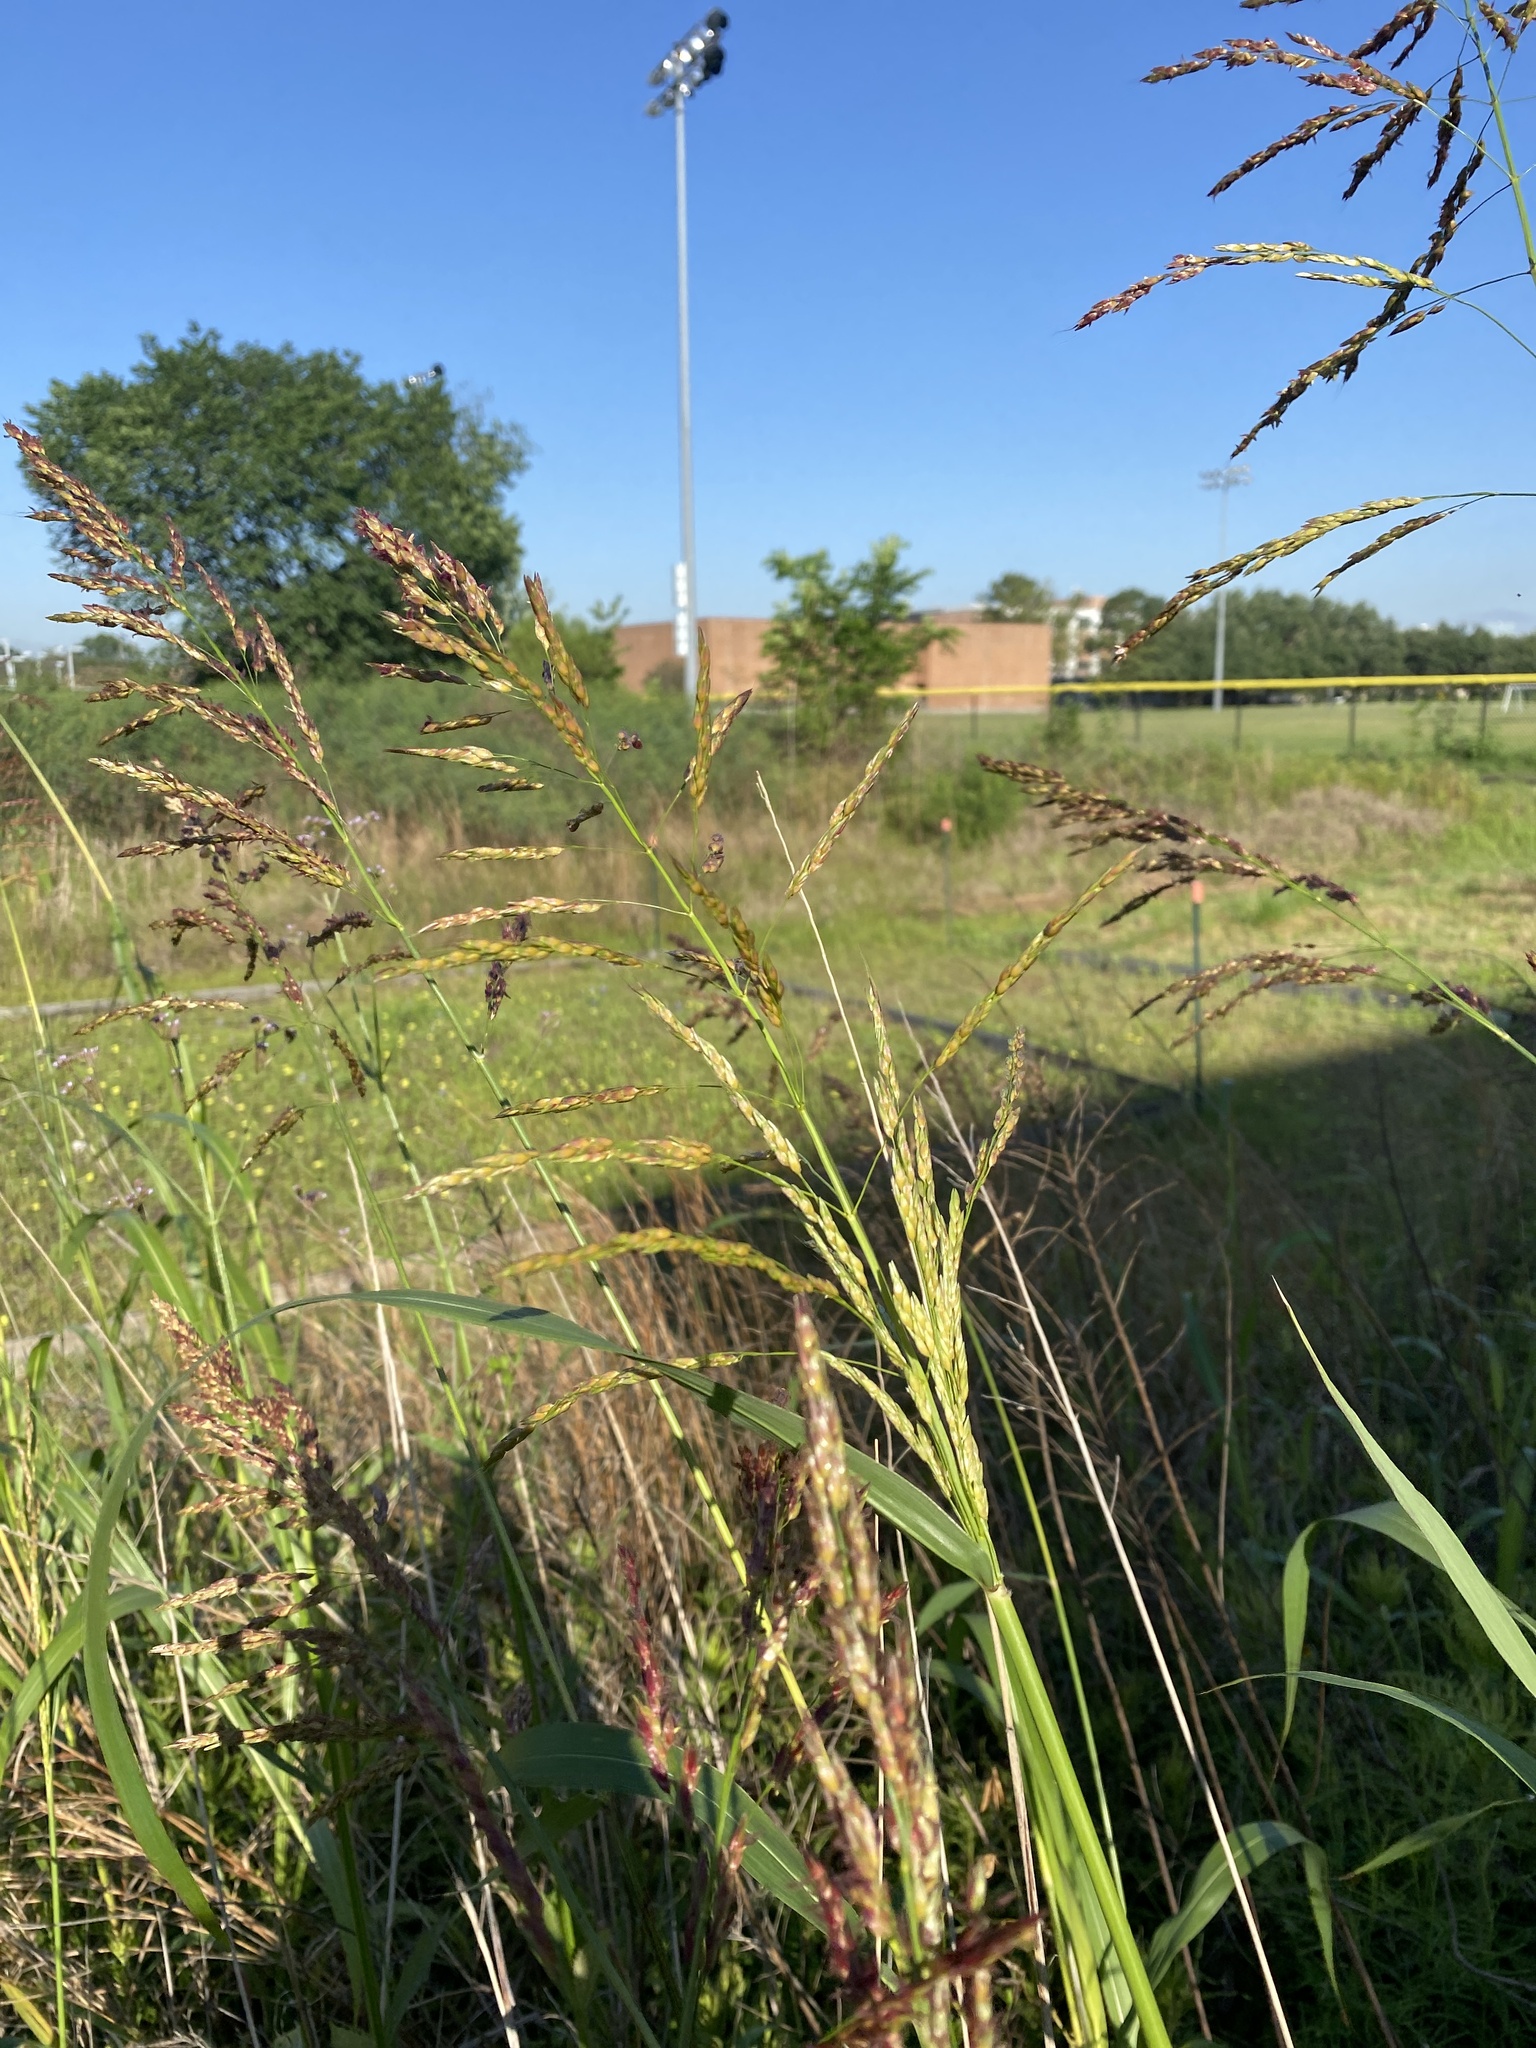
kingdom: Plantae
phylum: Tracheophyta
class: Liliopsida
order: Poales
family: Poaceae
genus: Sorghum
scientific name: Sorghum halepense
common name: Johnson-grass
